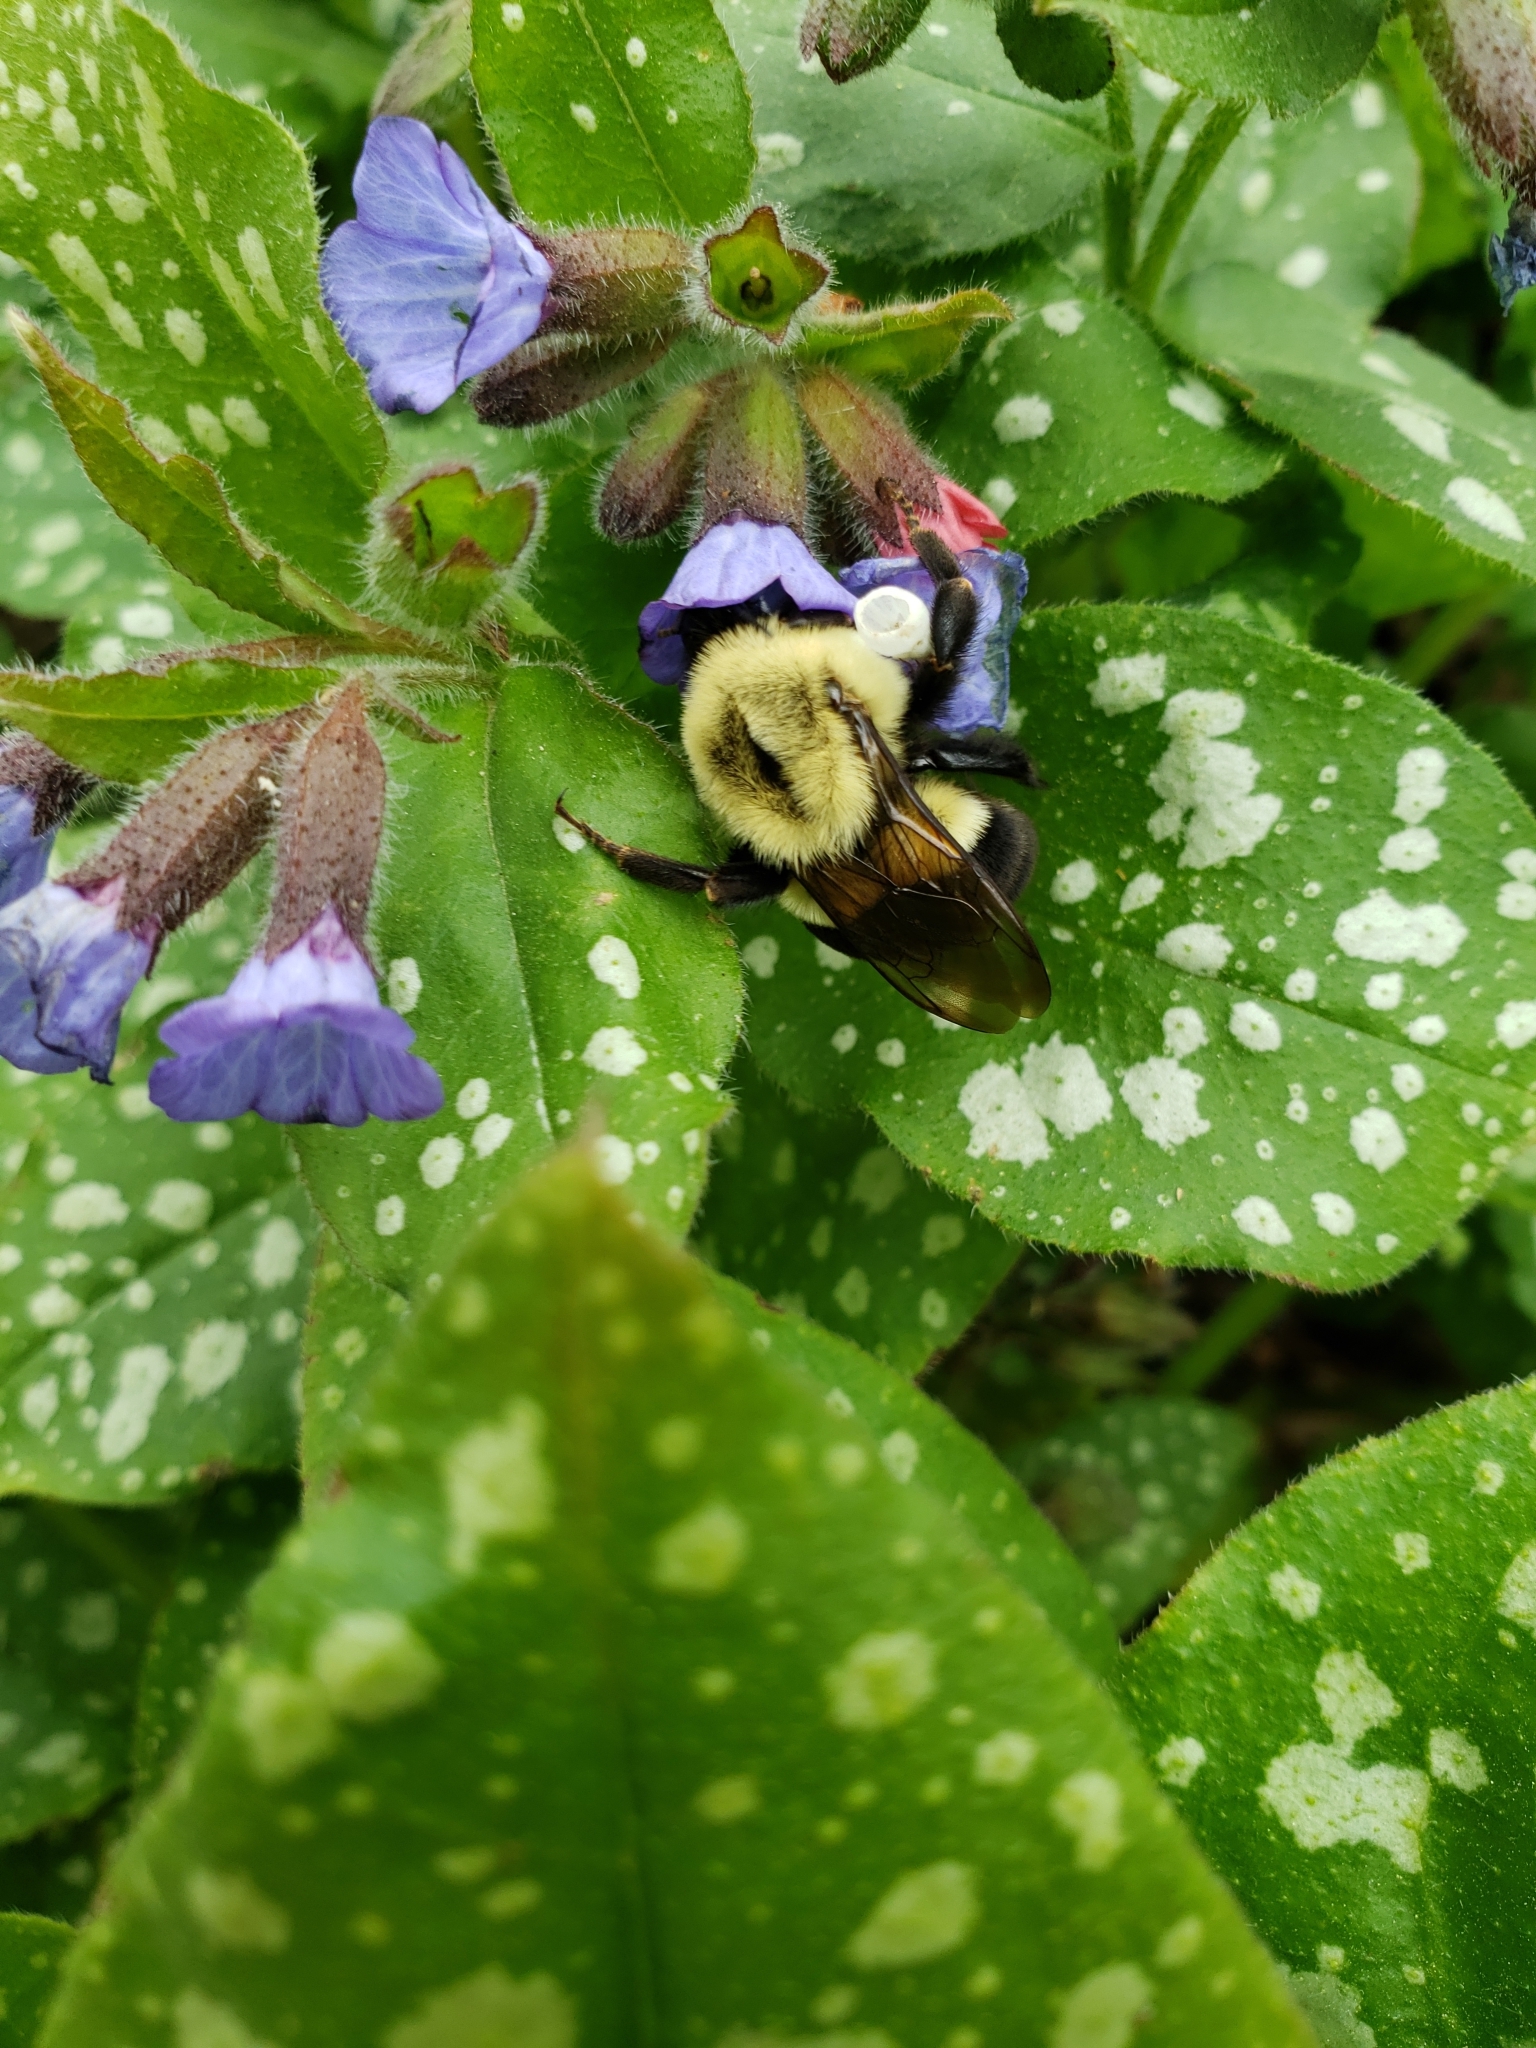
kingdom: Animalia
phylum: Arthropoda
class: Insecta
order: Hymenoptera
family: Apidae
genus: Bombus
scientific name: Bombus impatiens
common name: Common eastern bumble bee
